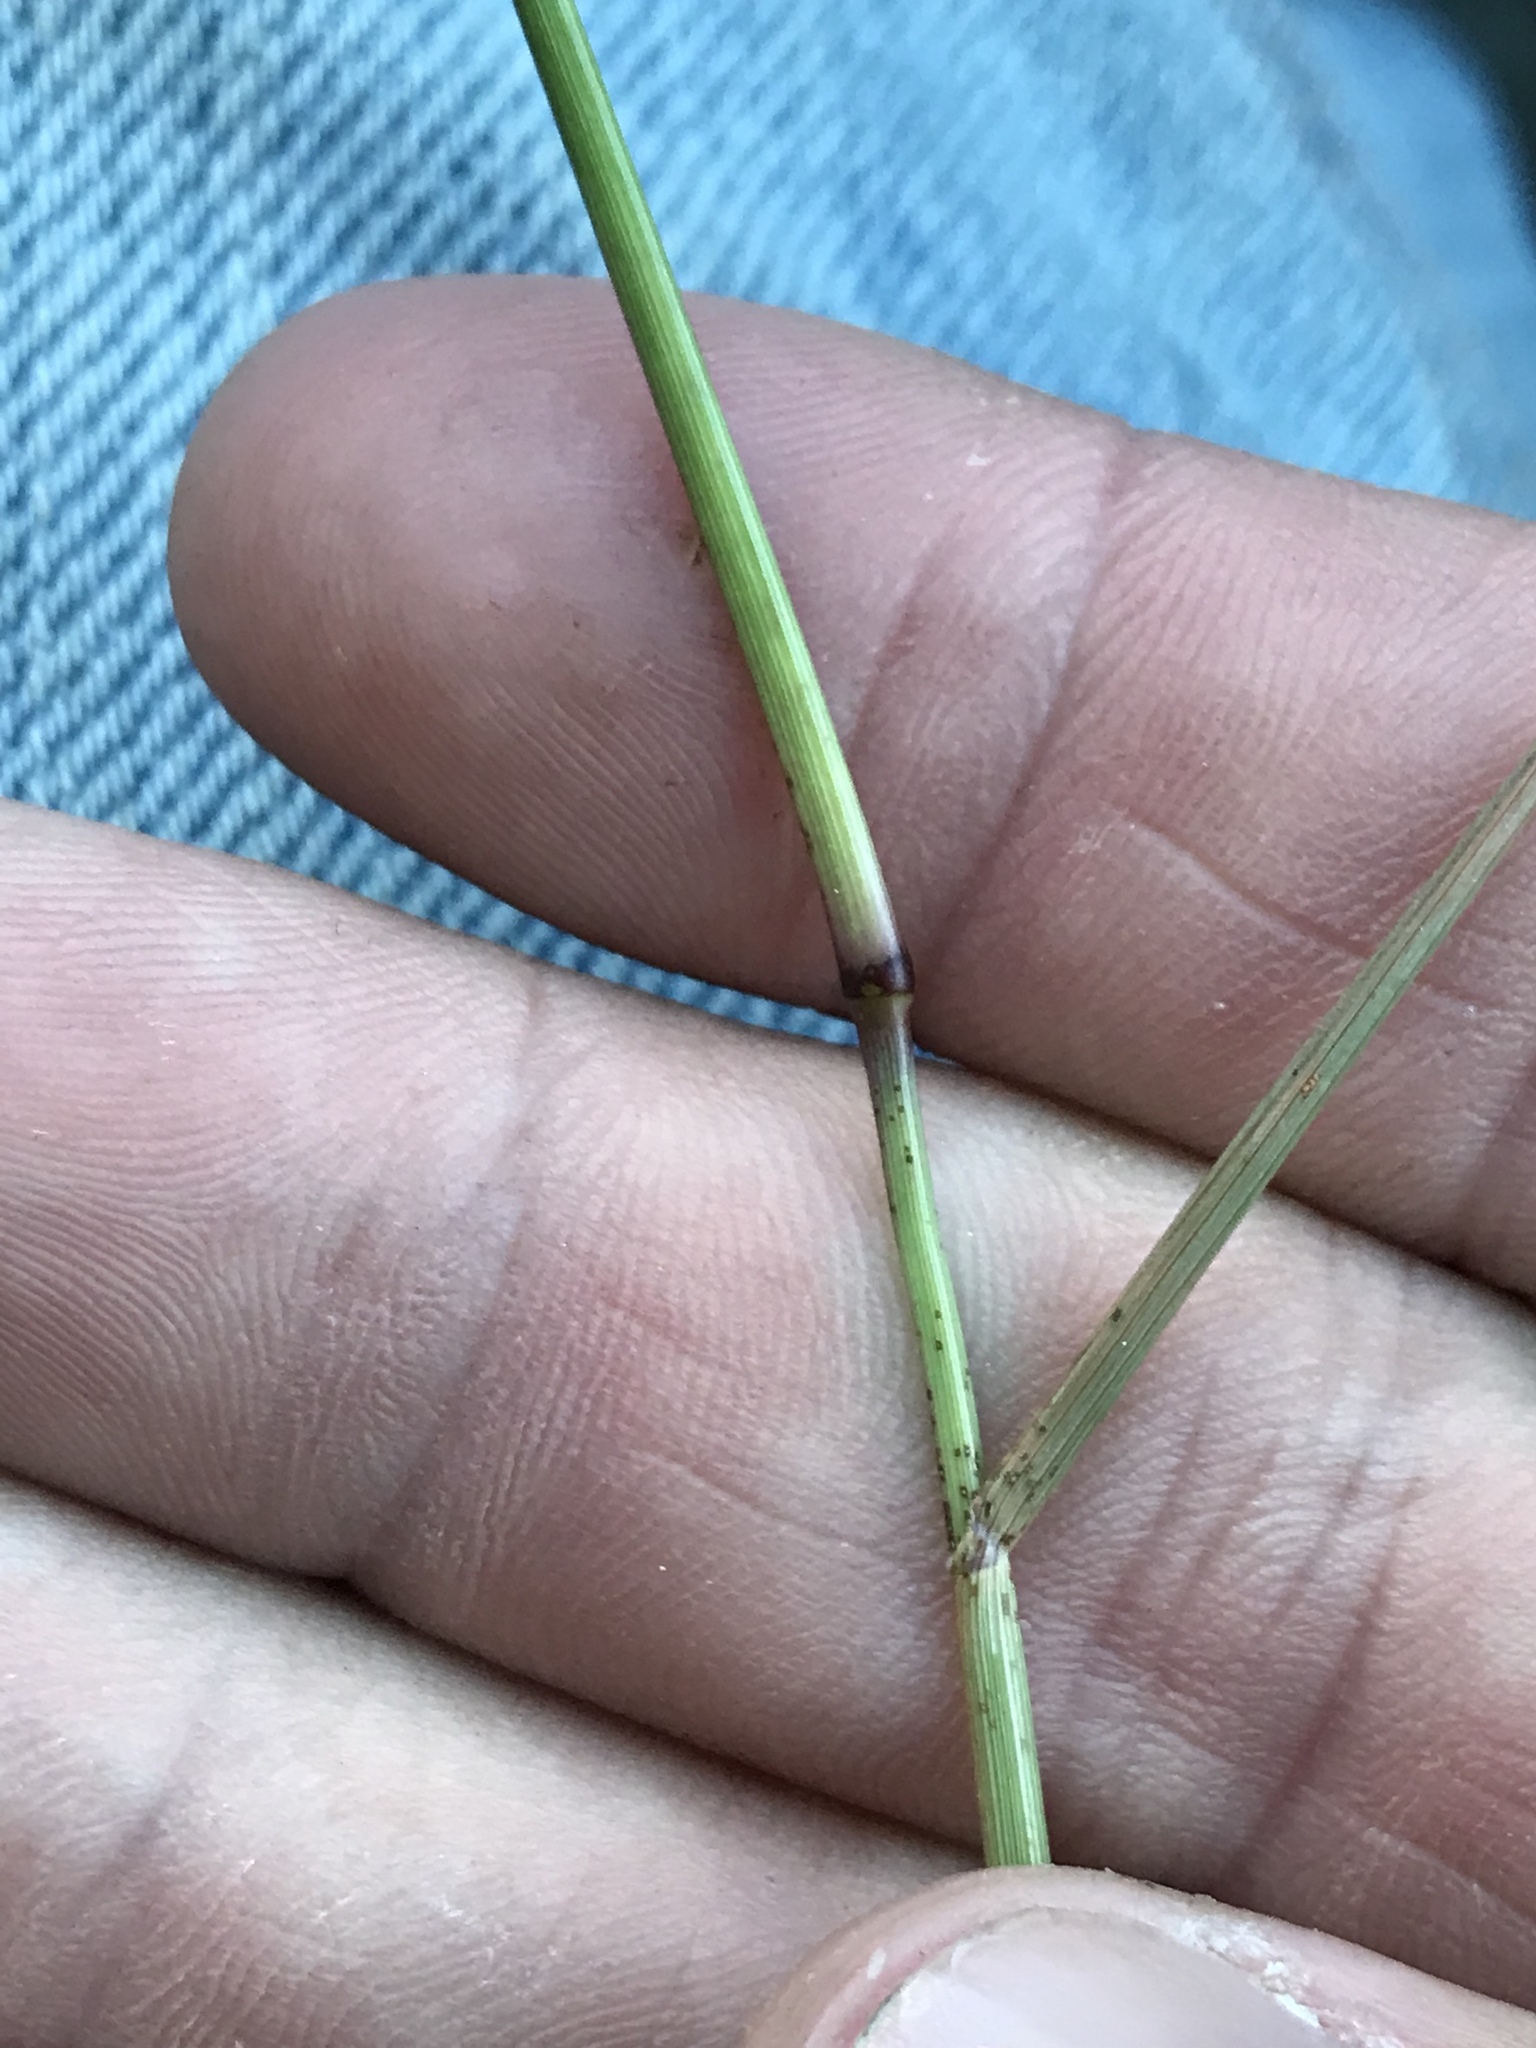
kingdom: Plantae
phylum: Tracheophyta
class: Liliopsida
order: Poales
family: Poaceae
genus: Tridens
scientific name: Tridens albescens
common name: White tridens
